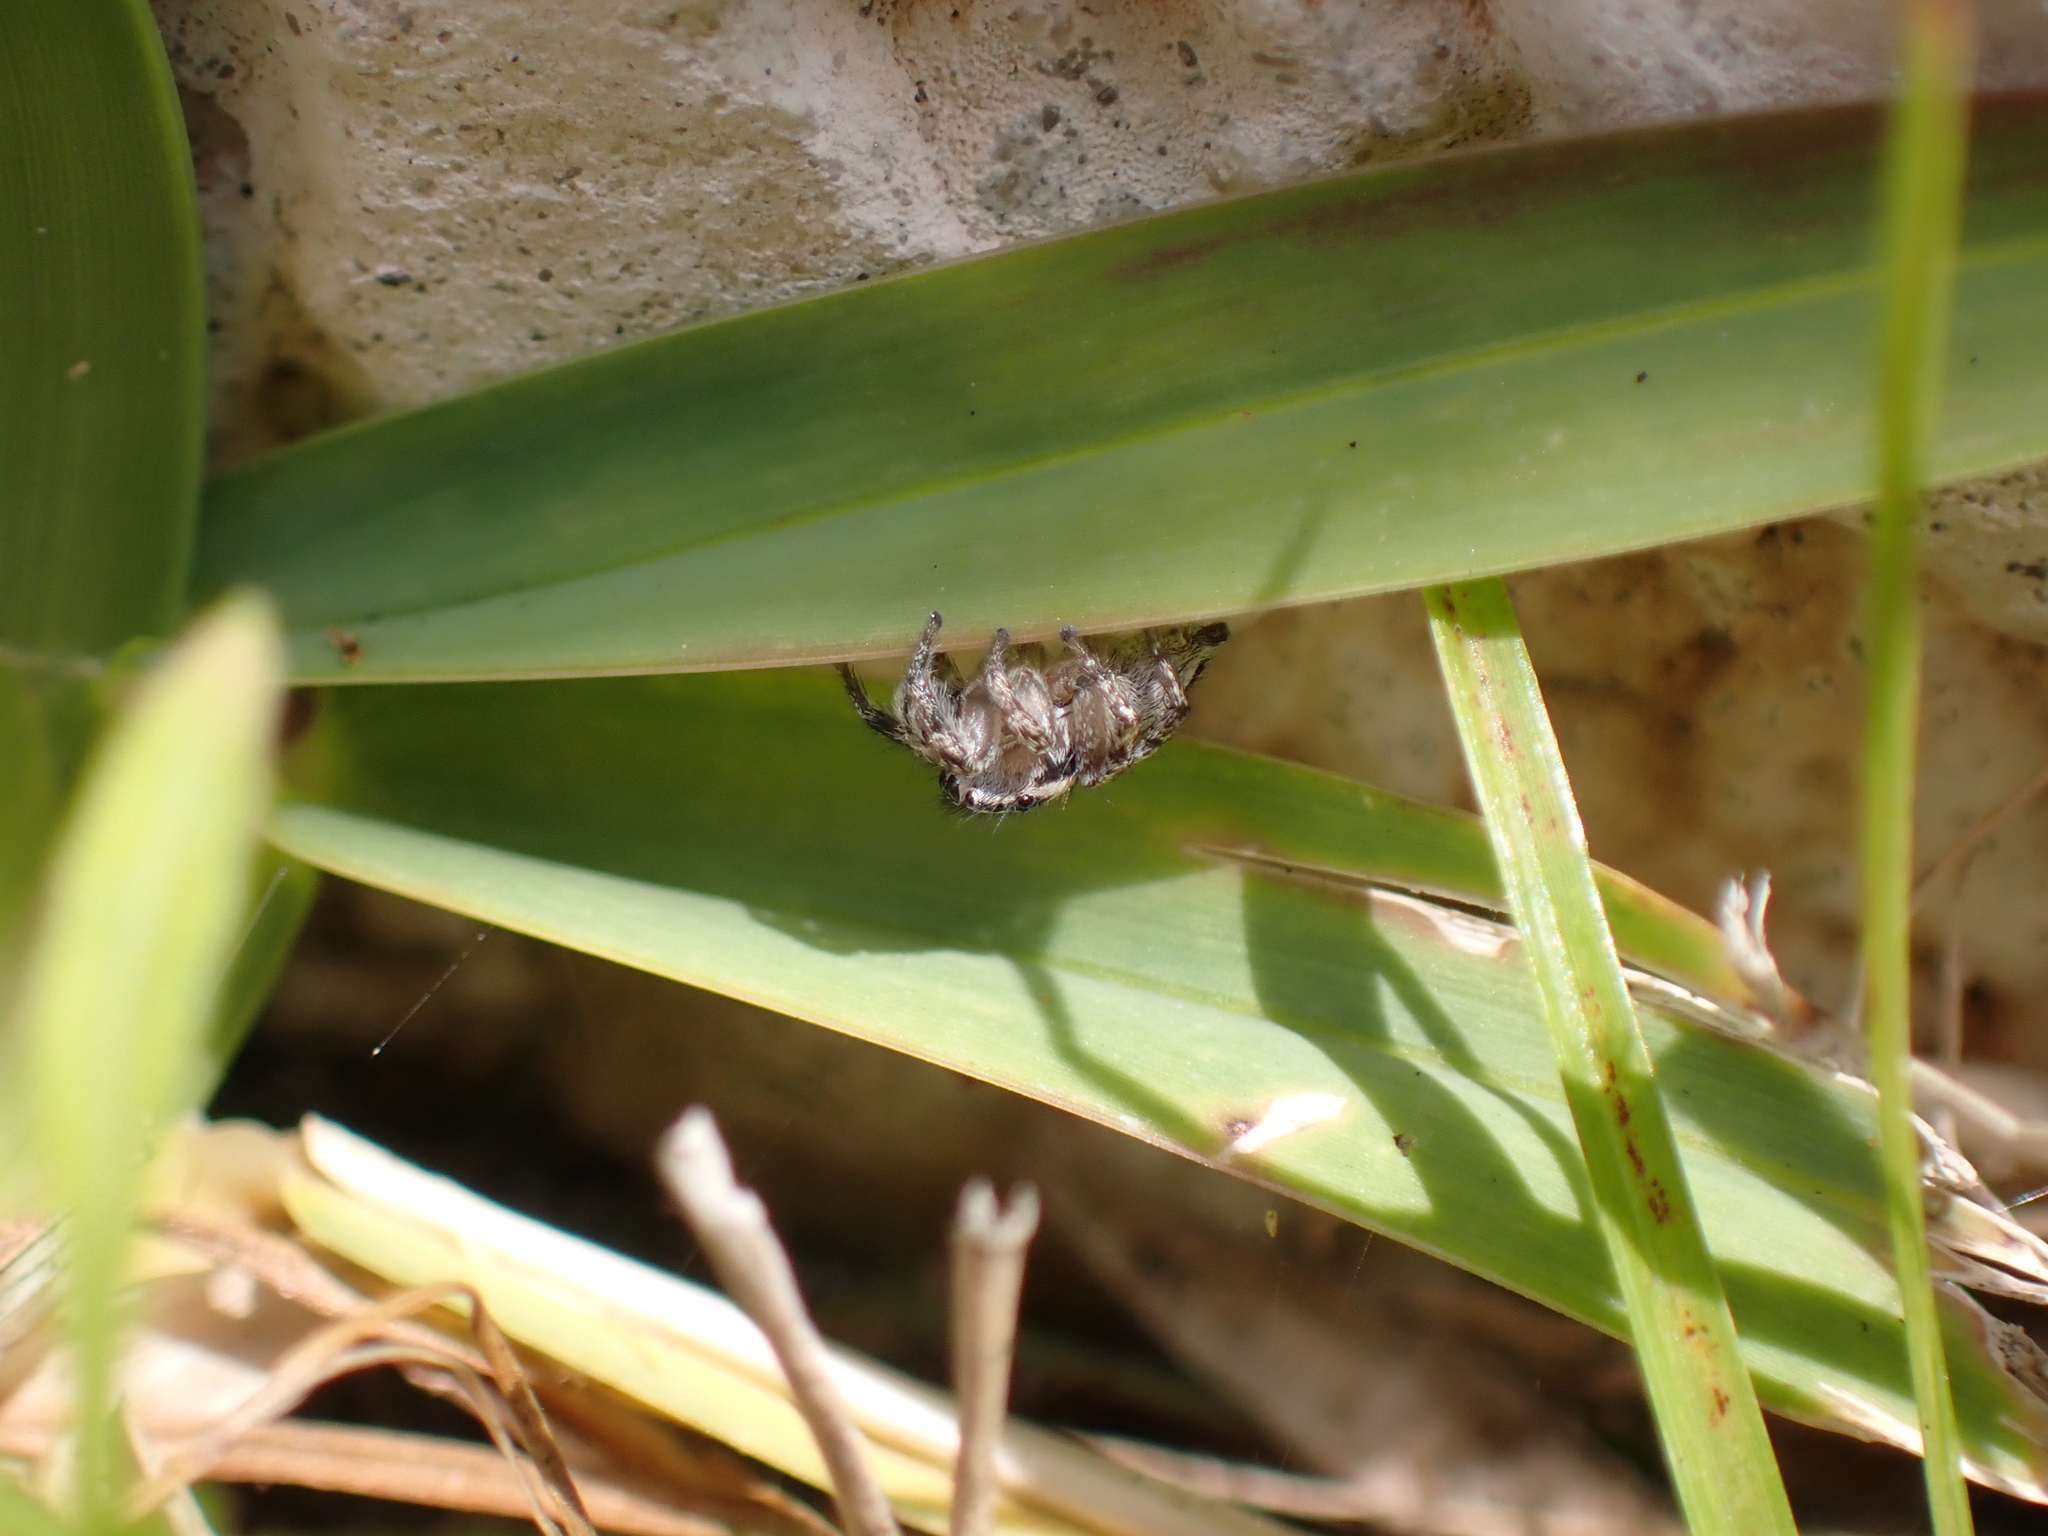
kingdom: Animalia
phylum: Arthropoda
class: Arachnida
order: Araneae
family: Salticidae
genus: Habronattus
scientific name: Habronattus trimaculatus
